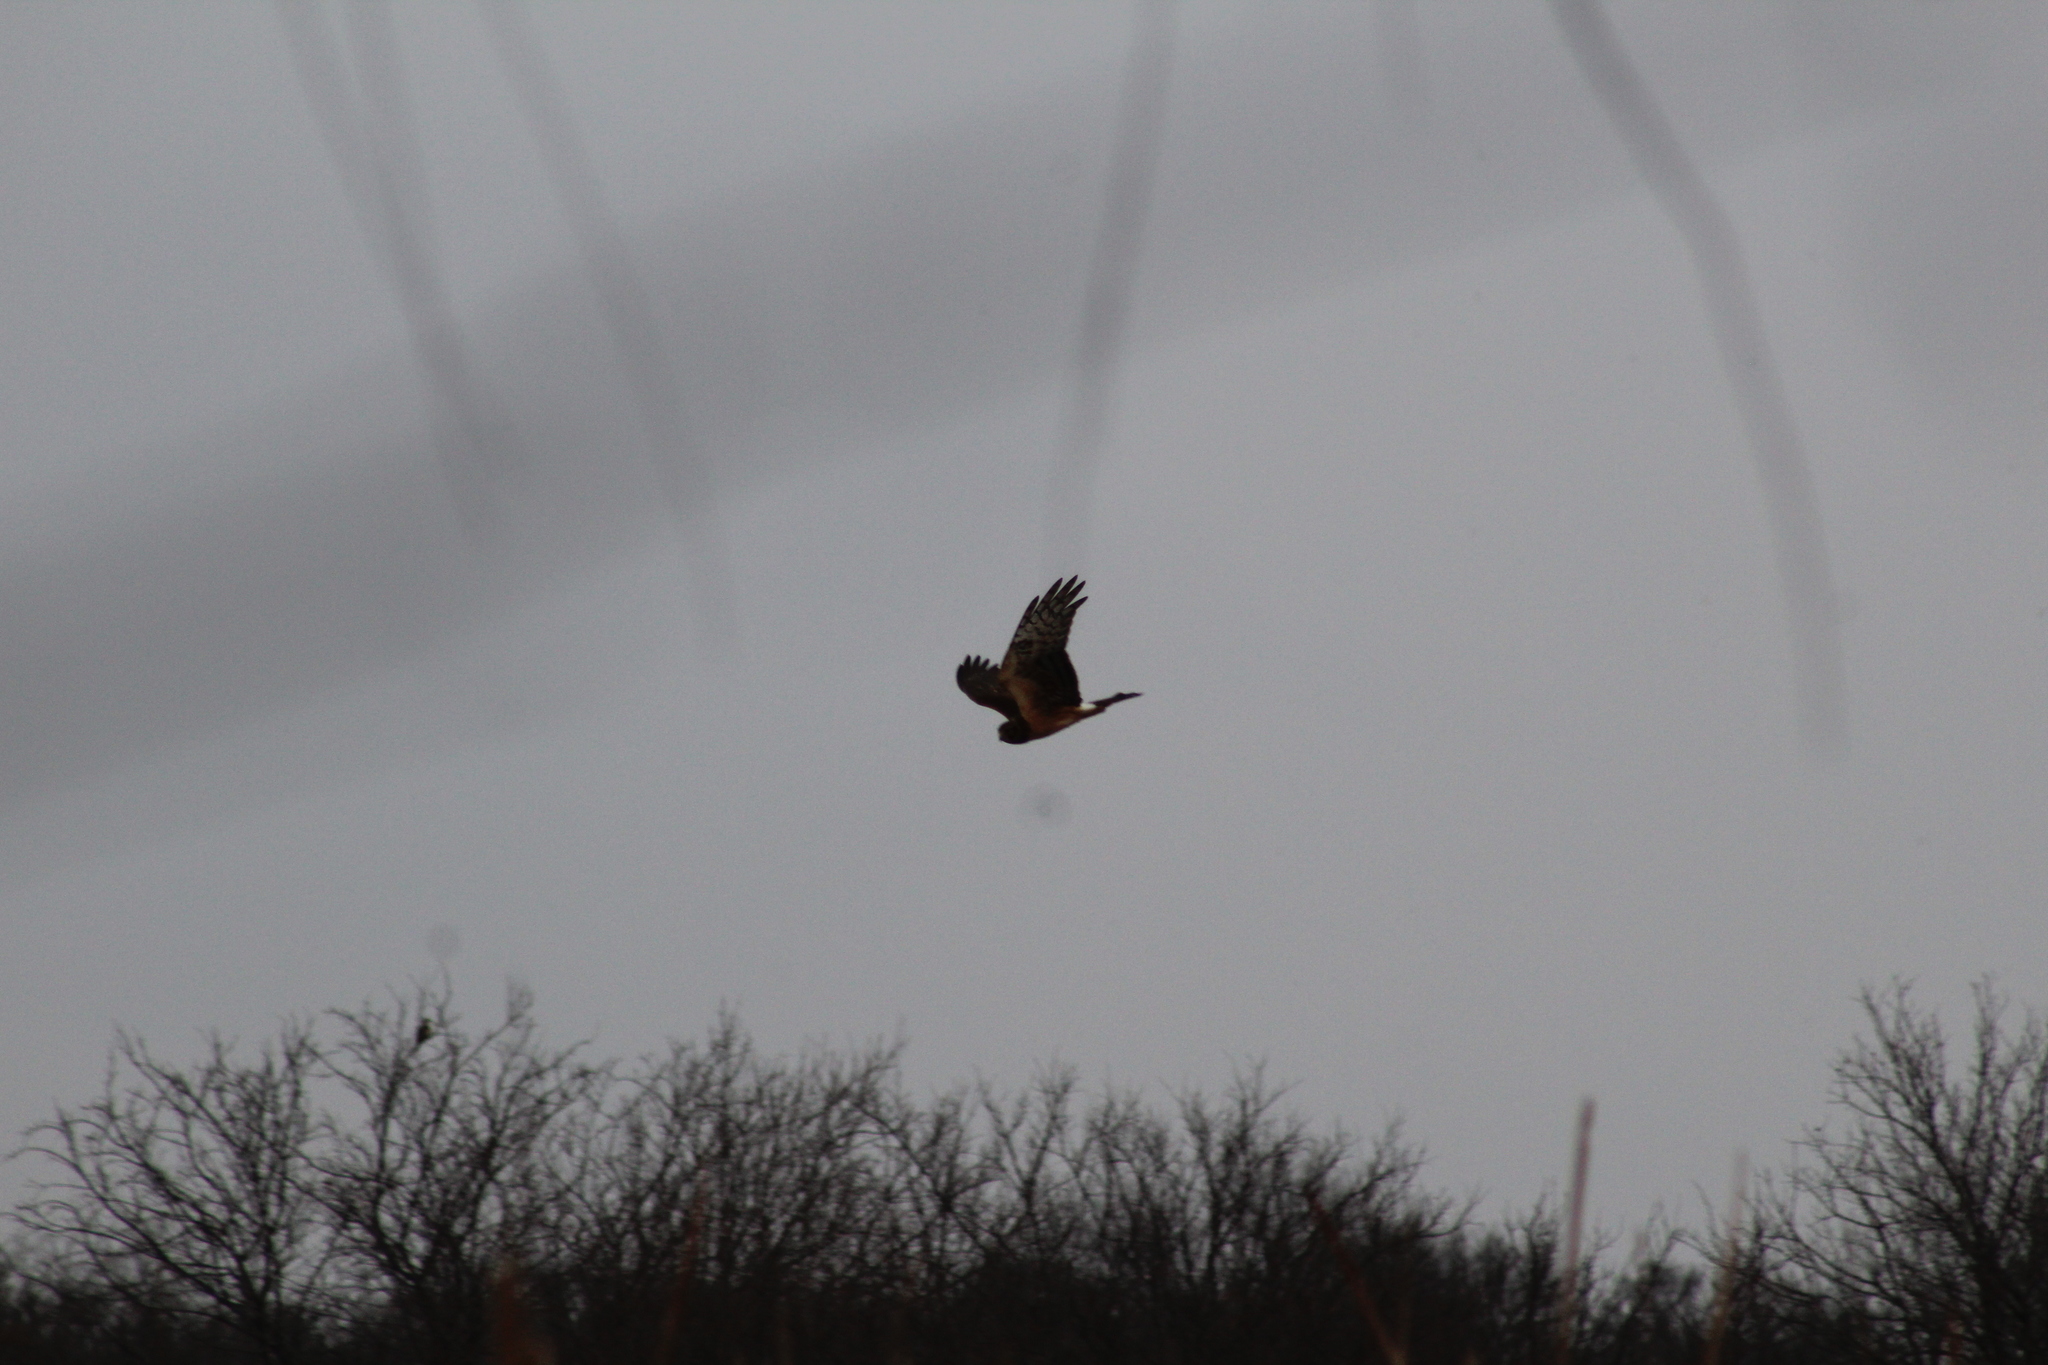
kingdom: Animalia
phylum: Chordata
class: Aves
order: Accipitriformes
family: Accipitridae
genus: Circus
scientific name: Circus cyaneus
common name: Hen harrier
